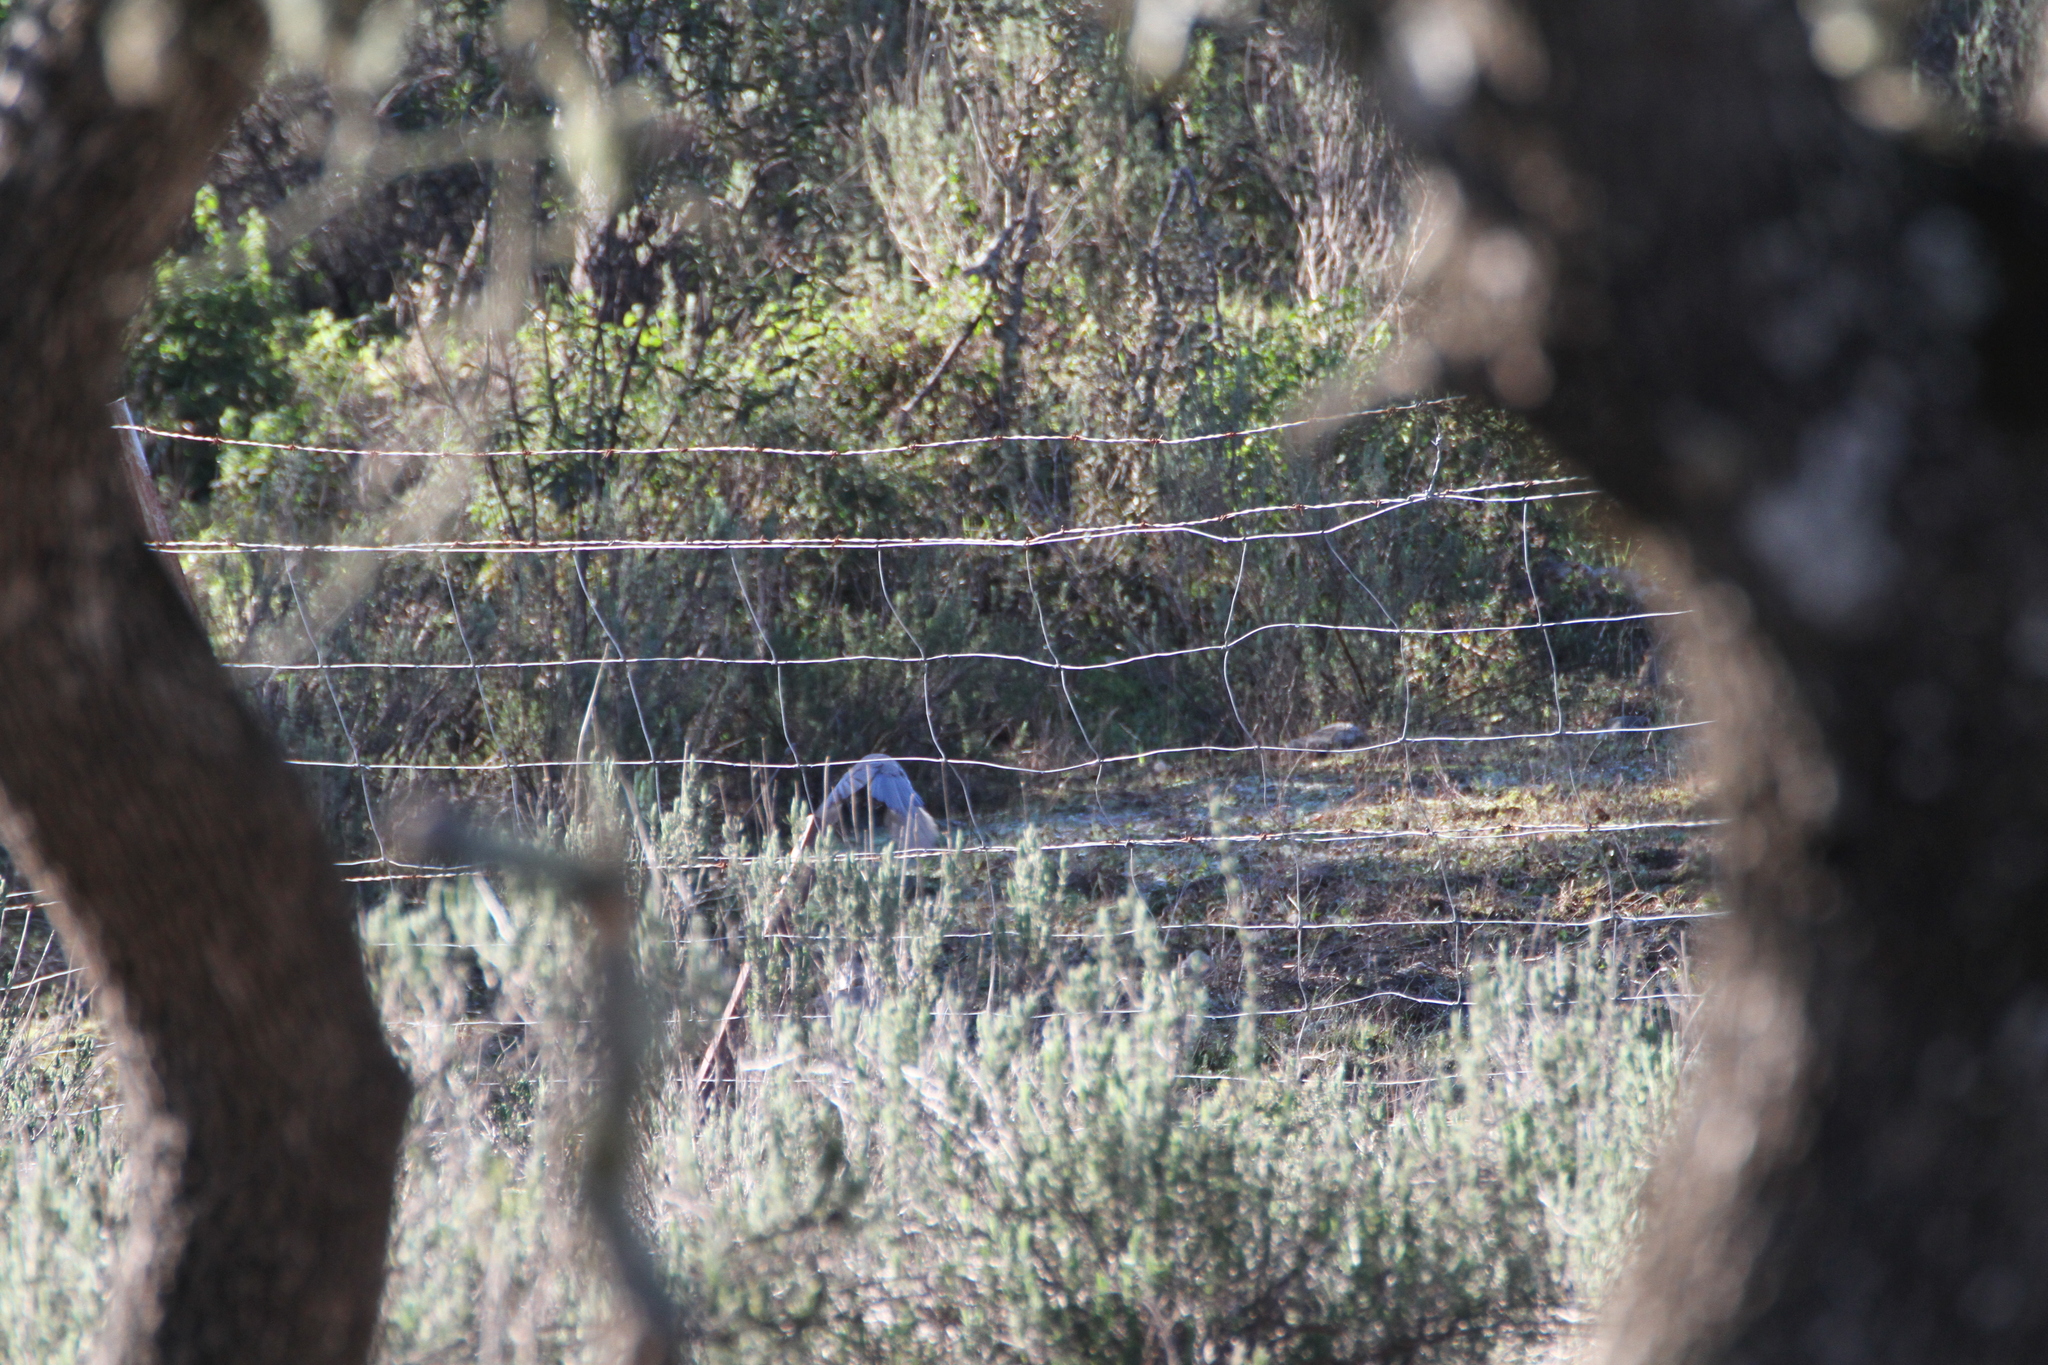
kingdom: Animalia
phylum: Chordata
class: Aves
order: Passeriformes
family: Corvidae
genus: Cyanopica
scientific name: Cyanopica cooki
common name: Iberian magpie
